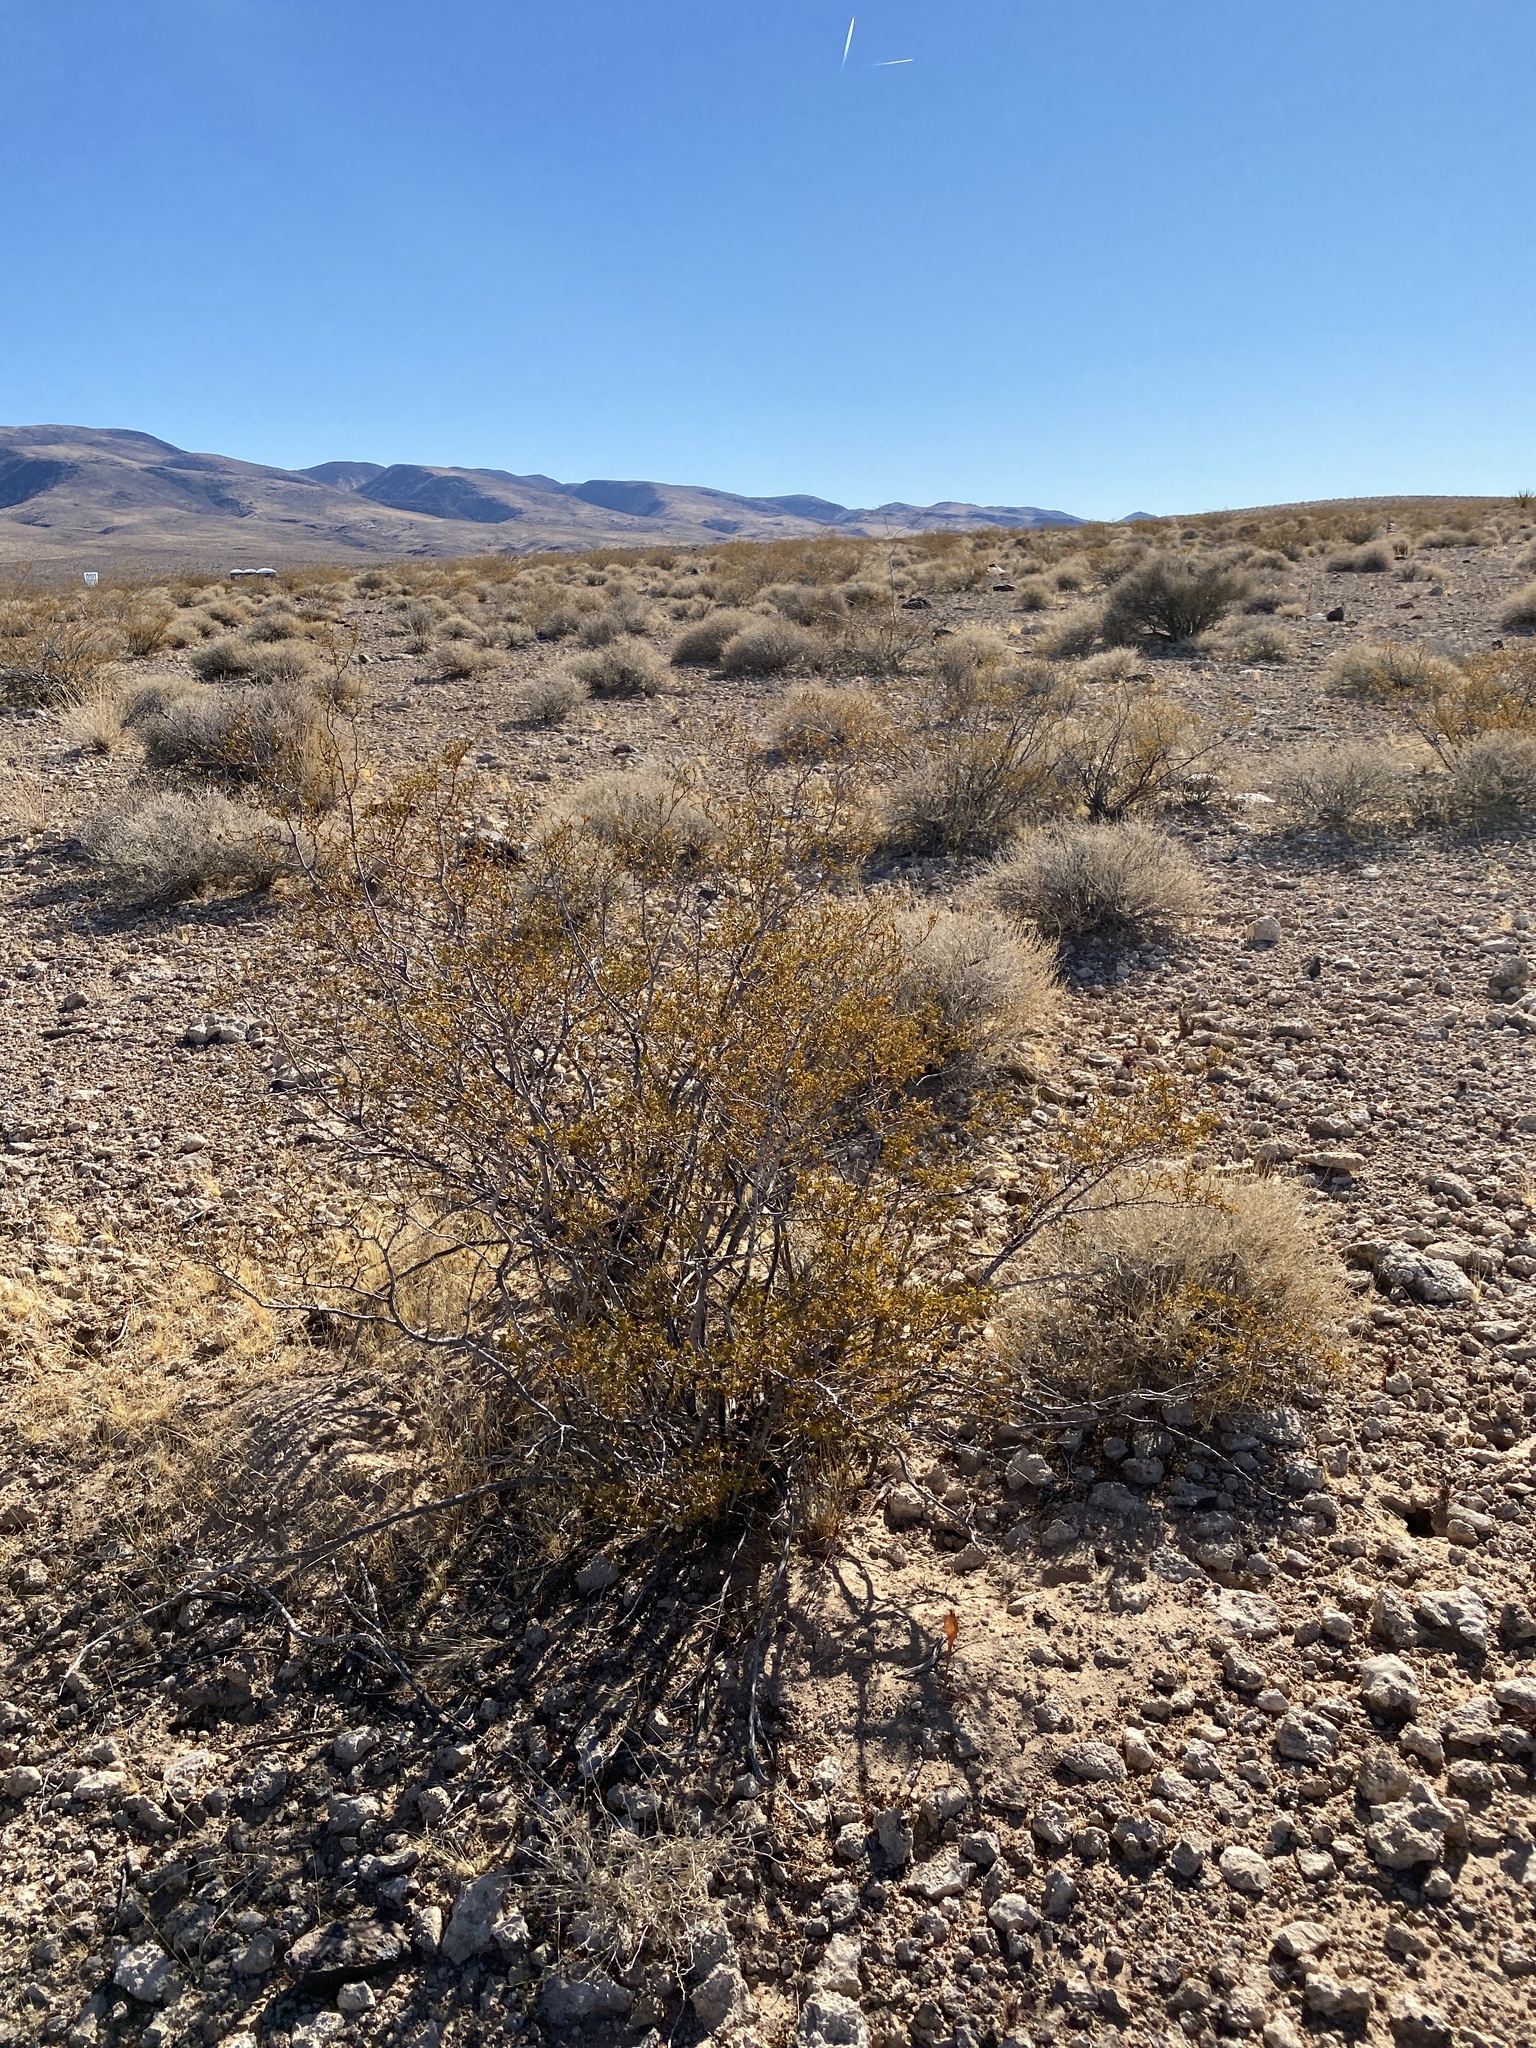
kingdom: Plantae
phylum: Tracheophyta
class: Magnoliopsida
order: Zygophyllales
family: Zygophyllaceae
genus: Larrea
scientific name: Larrea tridentata
